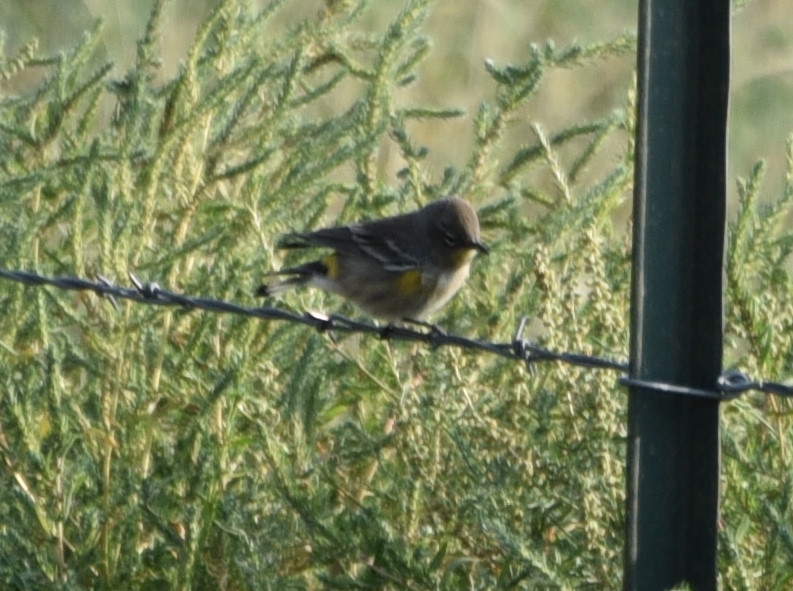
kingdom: Animalia
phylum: Chordata
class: Aves
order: Passeriformes
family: Parulidae
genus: Setophaga
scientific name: Setophaga coronata
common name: Myrtle warbler
